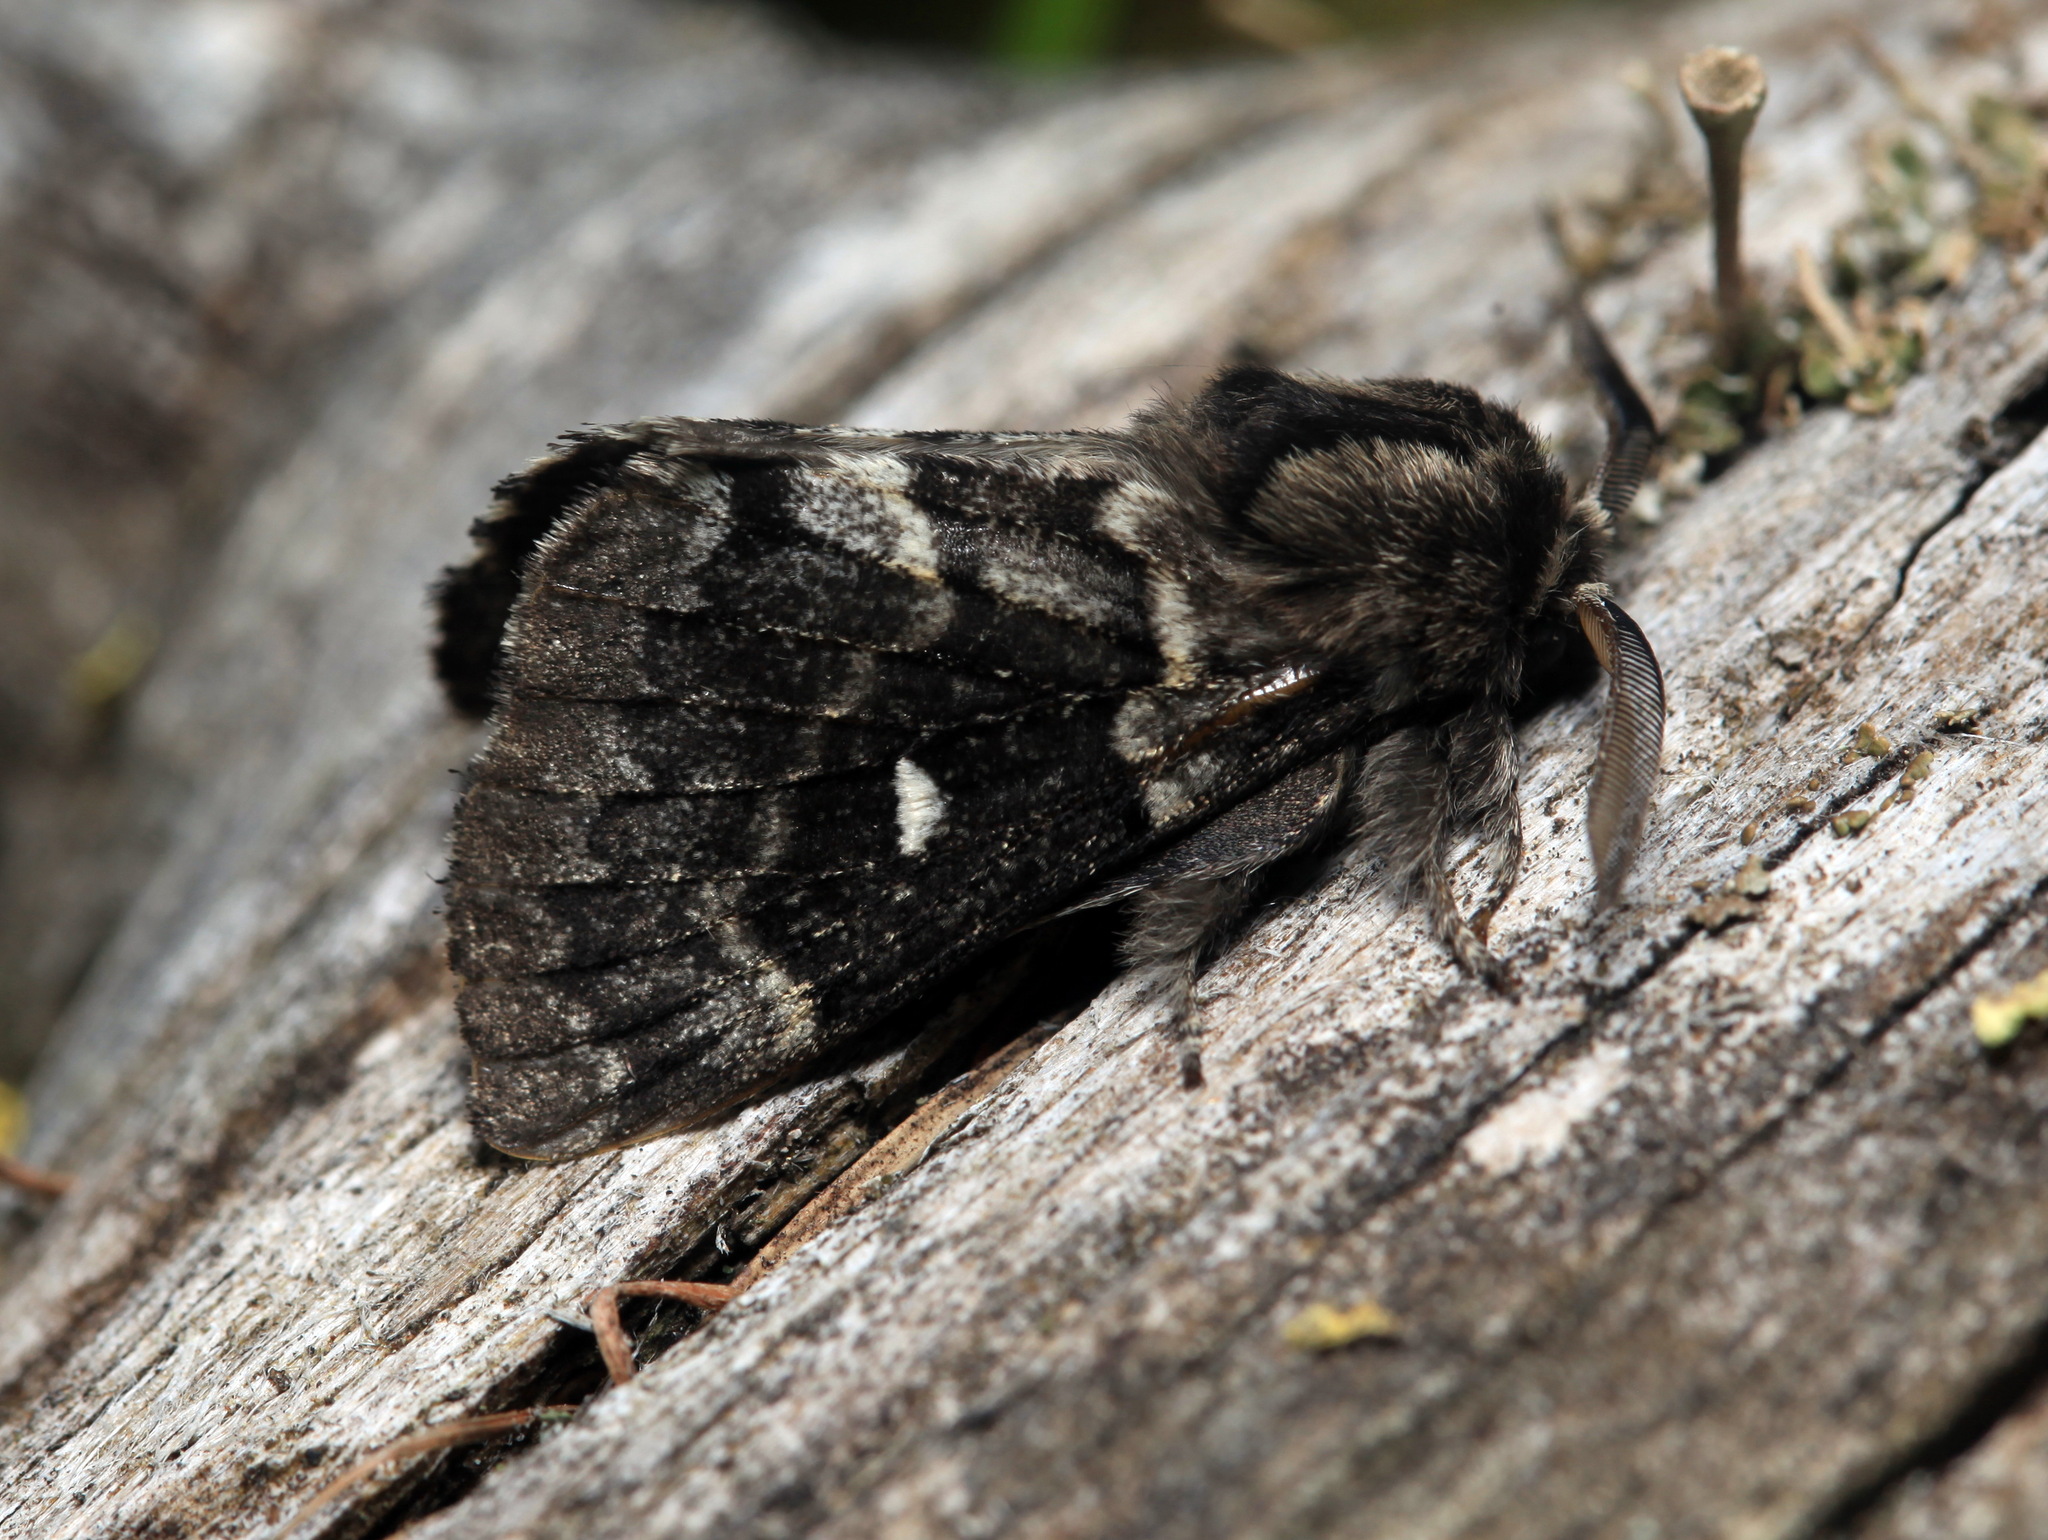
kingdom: Animalia
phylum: Arthropoda
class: Insecta
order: Lepidoptera
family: Lasiocampidae
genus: Cosmotriche
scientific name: Cosmotriche lobulina
